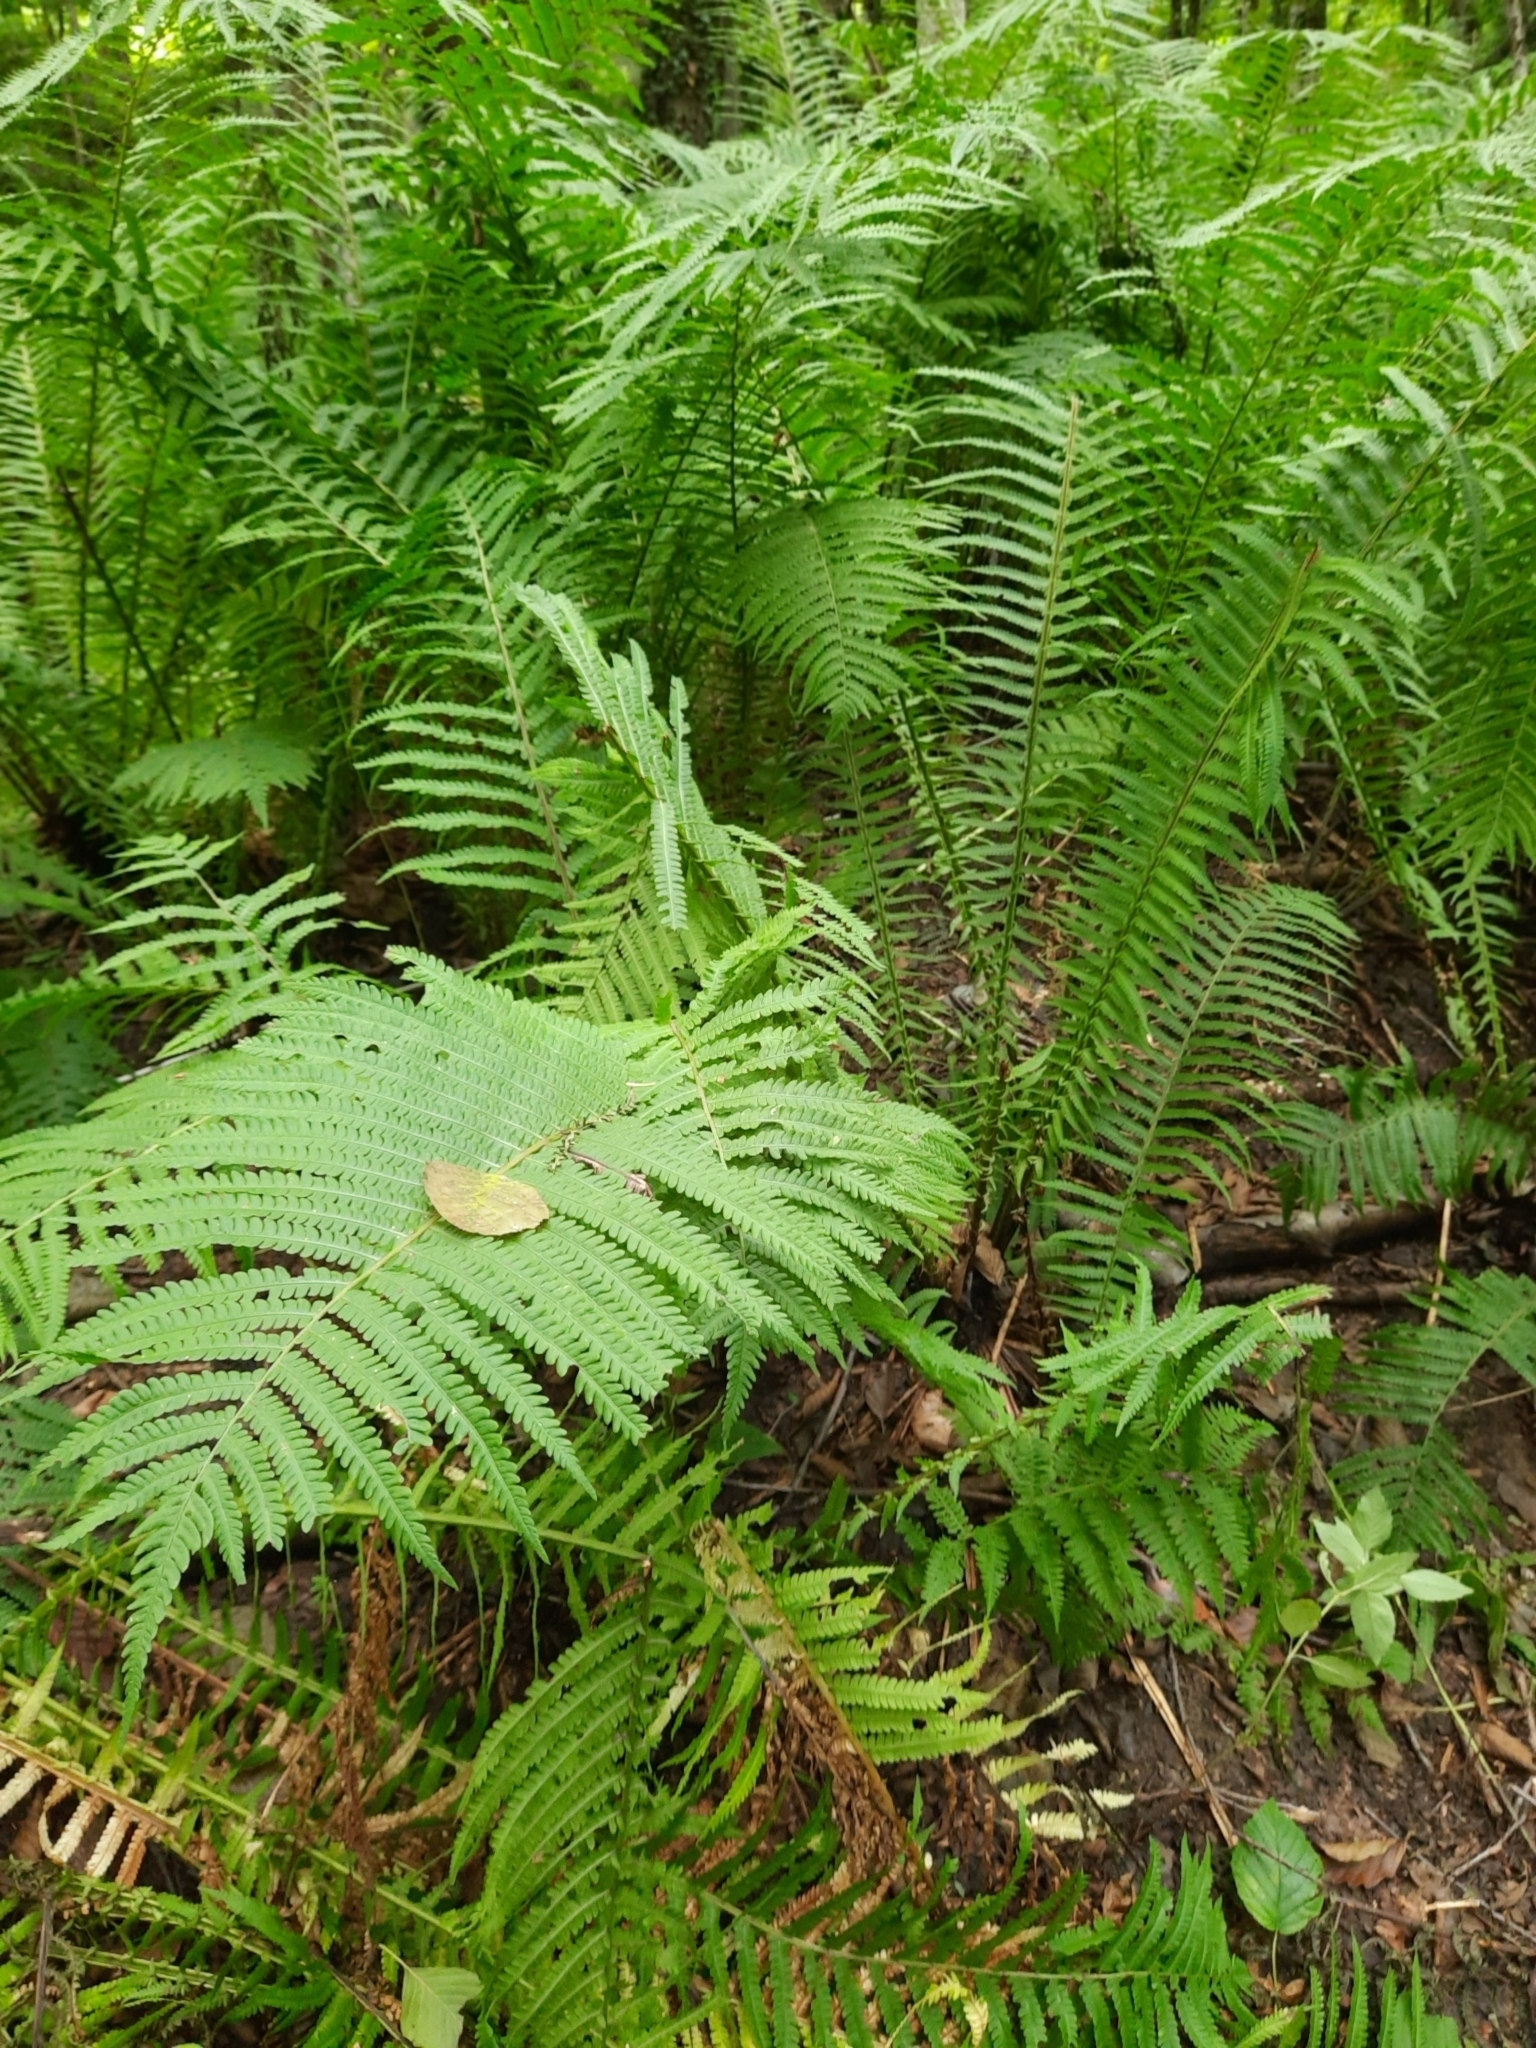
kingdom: Plantae
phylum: Tracheophyta
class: Polypodiopsida
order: Polypodiales
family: Onocleaceae
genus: Matteuccia
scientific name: Matteuccia struthiopteris
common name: Ostrich fern
